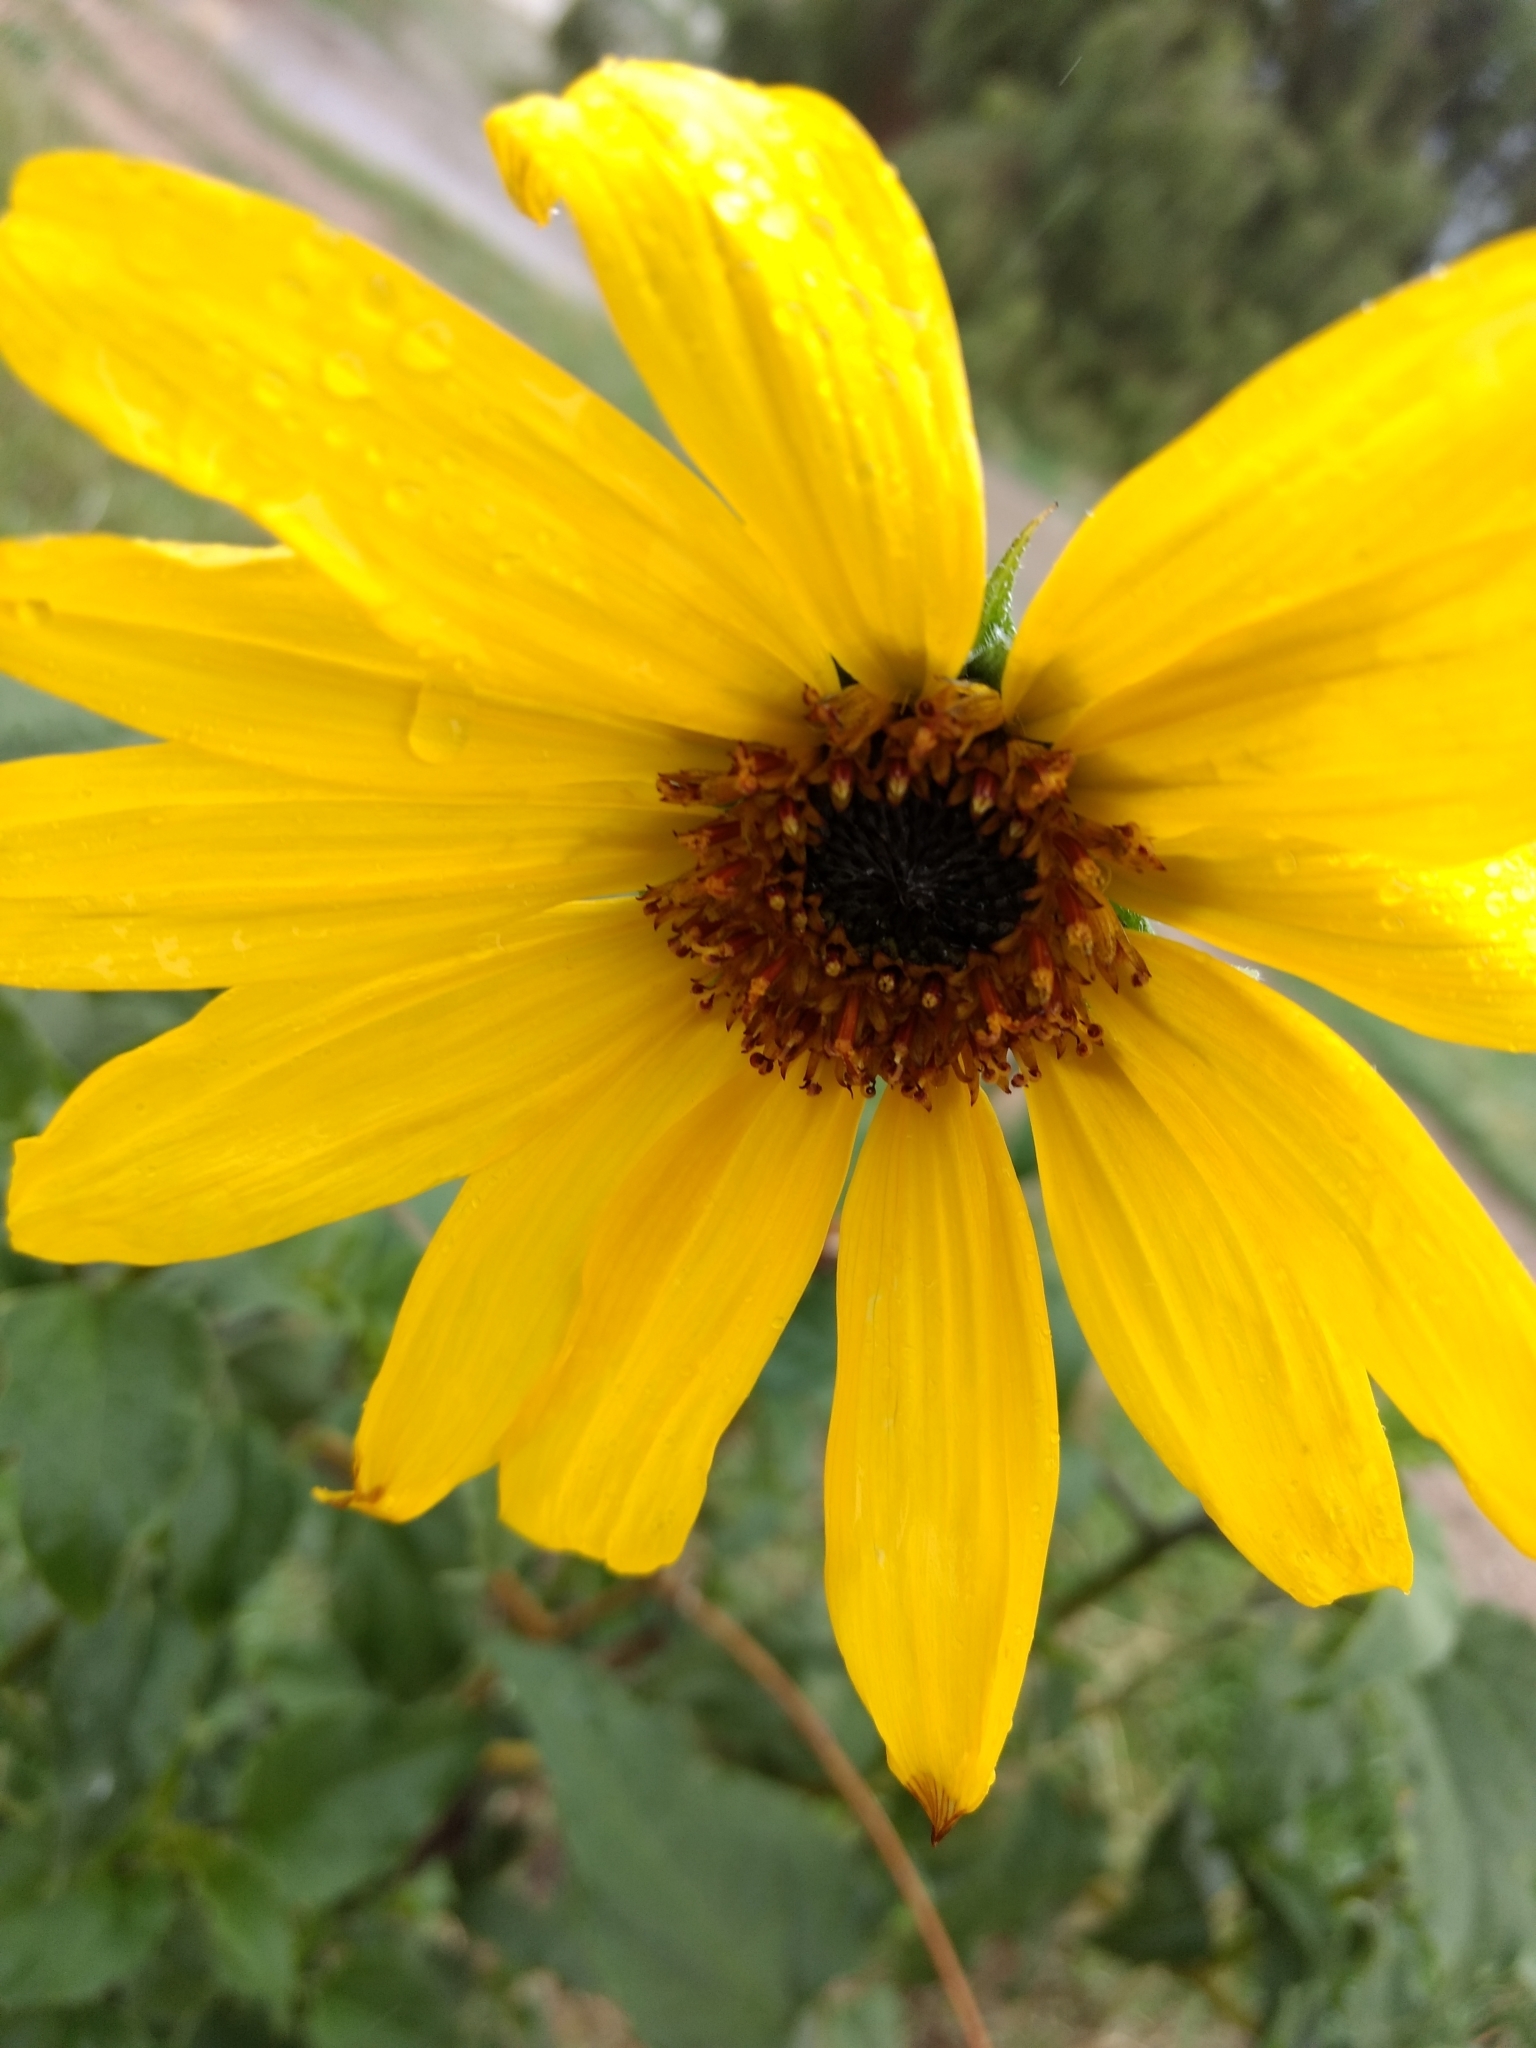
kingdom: Plantae
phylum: Tracheophyta
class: Magnoliopsida
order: Asterales
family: Asteraceae
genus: Helianthus
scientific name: Helianthus annuus
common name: Sunflower
